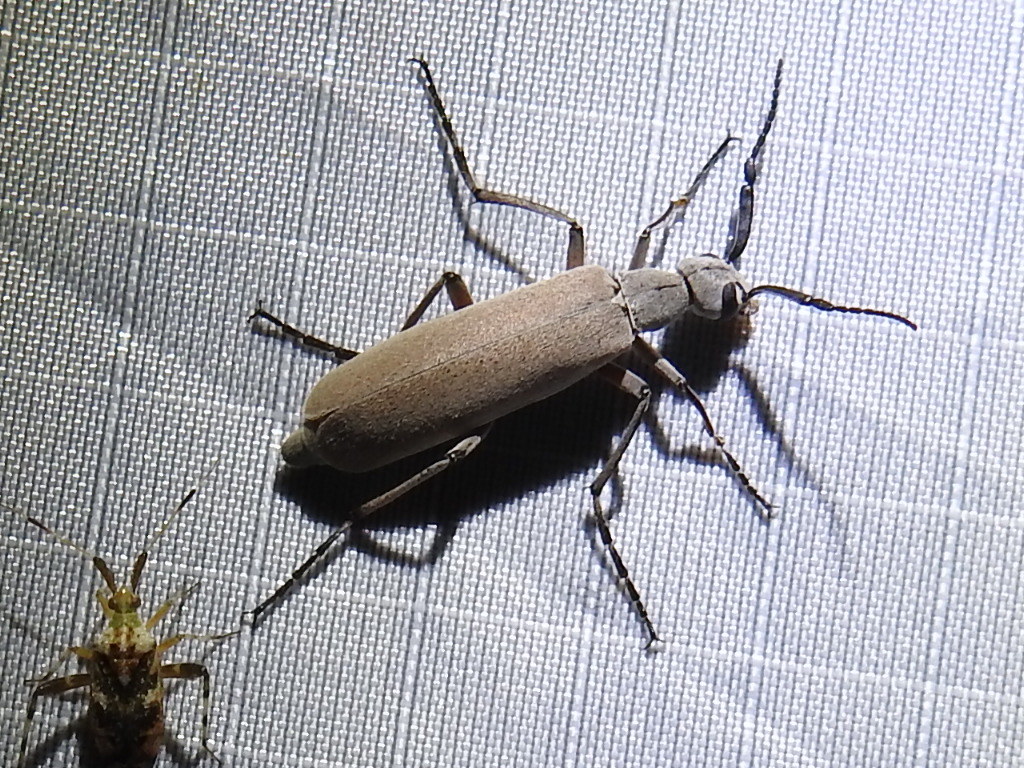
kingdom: Animalia
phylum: Arthropoda
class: Insecta
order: Coleoptera
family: Meloidae
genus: Epicauta
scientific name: Epicauta polingi
